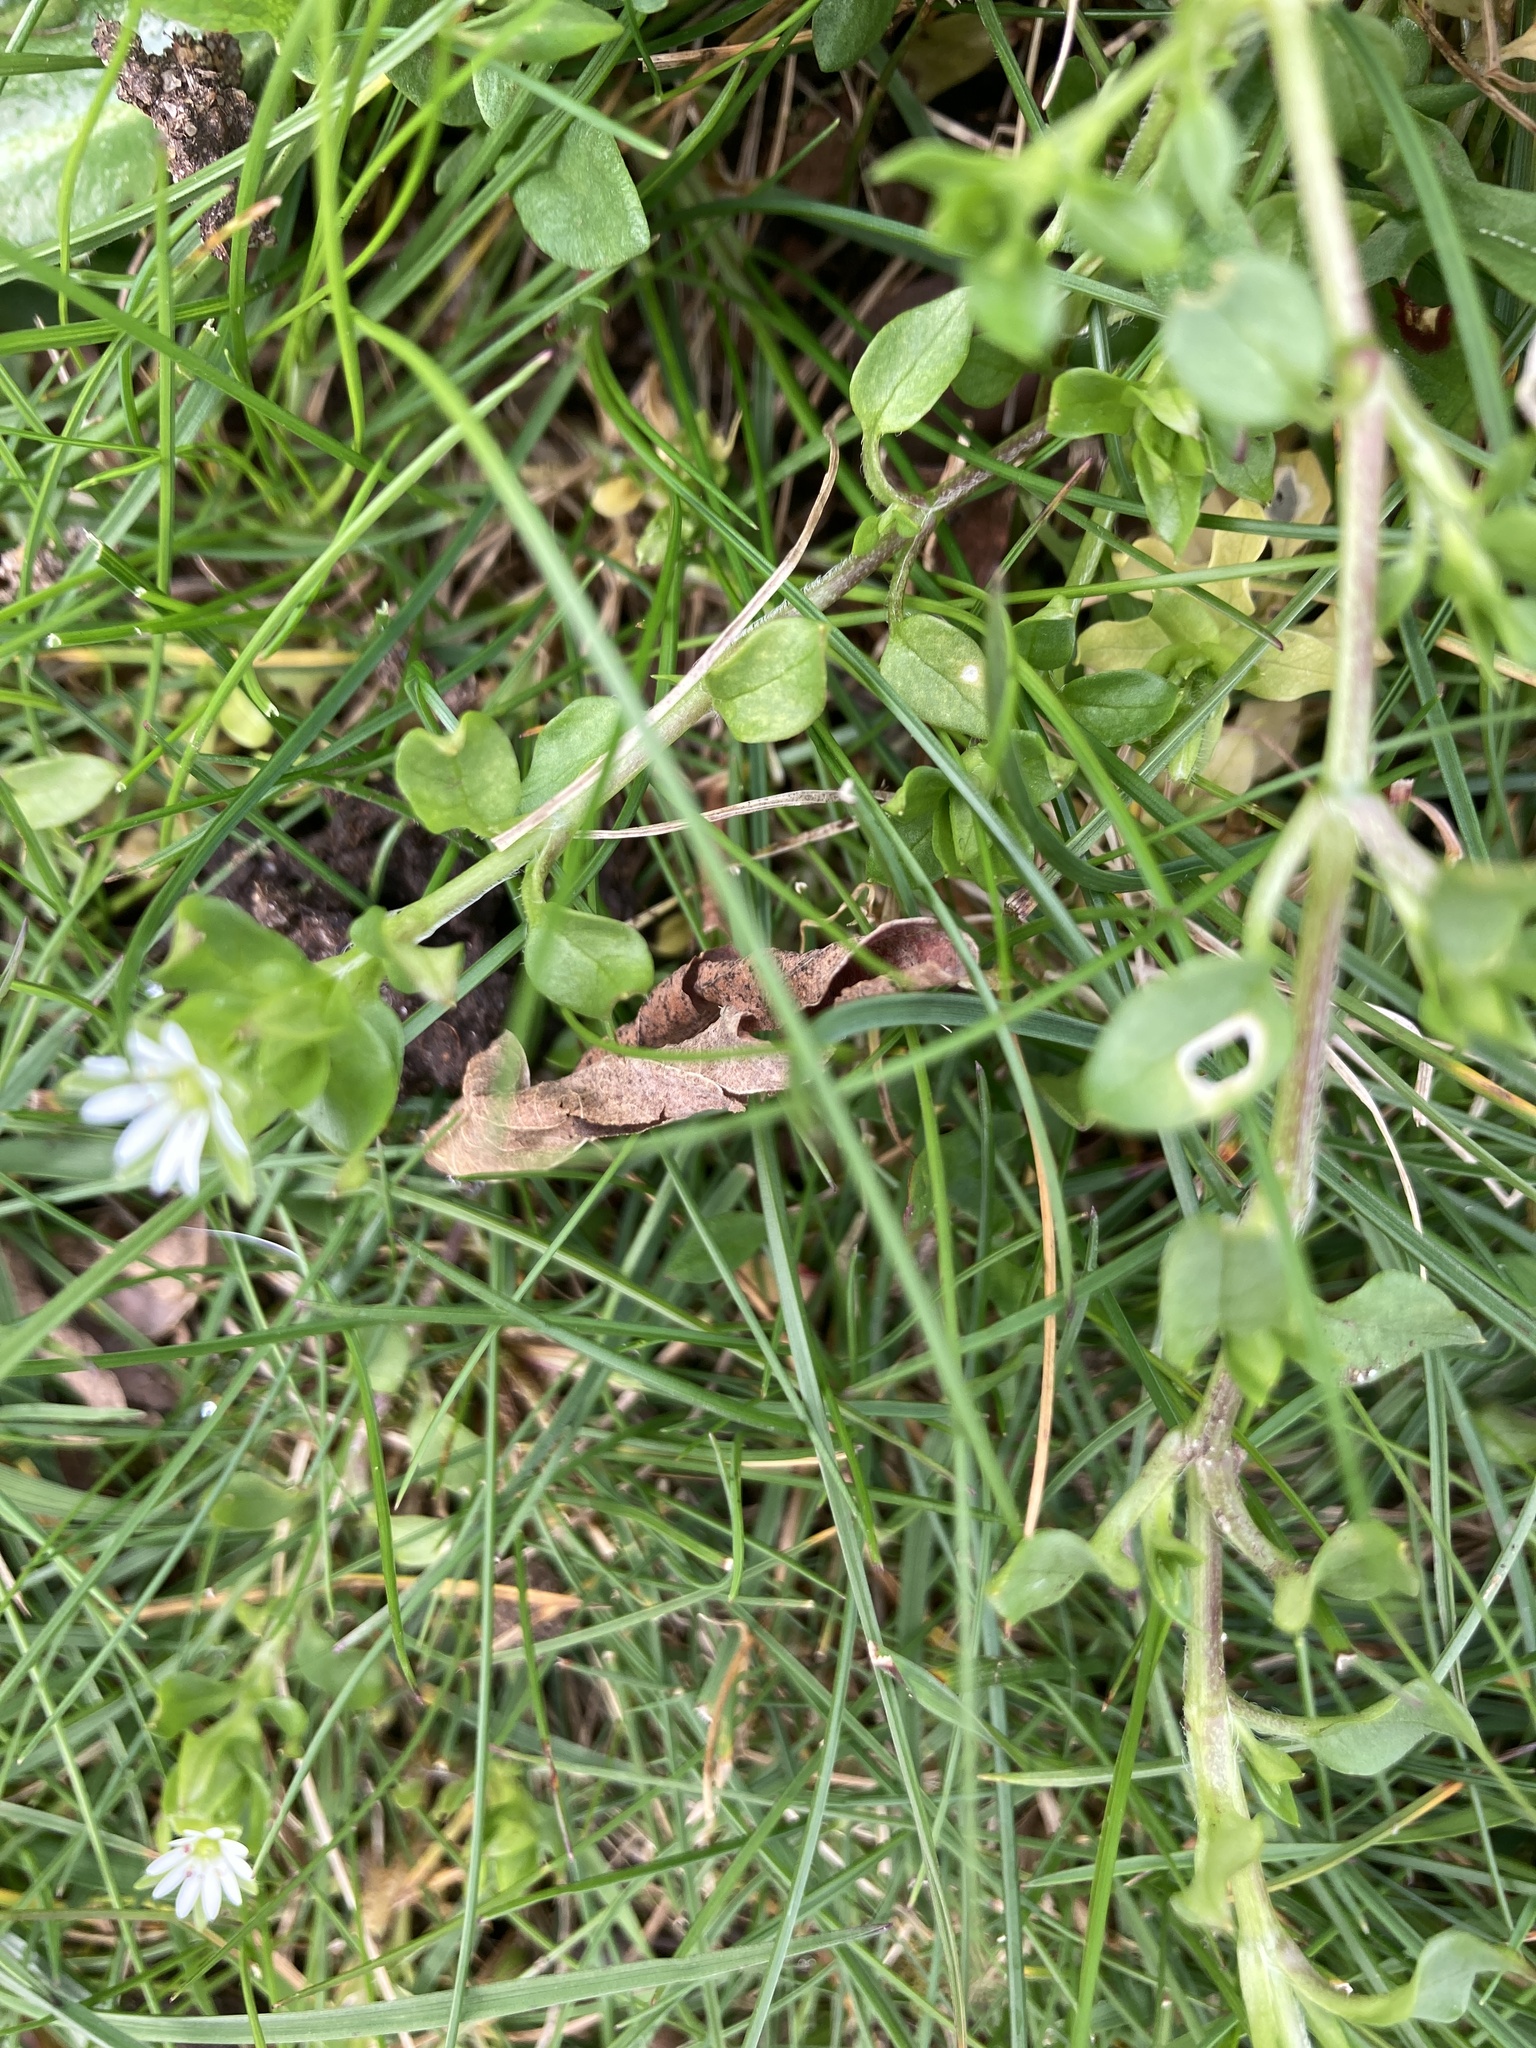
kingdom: Plantae
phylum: Tracheophyta
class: Magnoliopsida
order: Caryophyllales
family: Caryophyllaceae
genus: Stellaria
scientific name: Stellaria media
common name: Common chickweed
